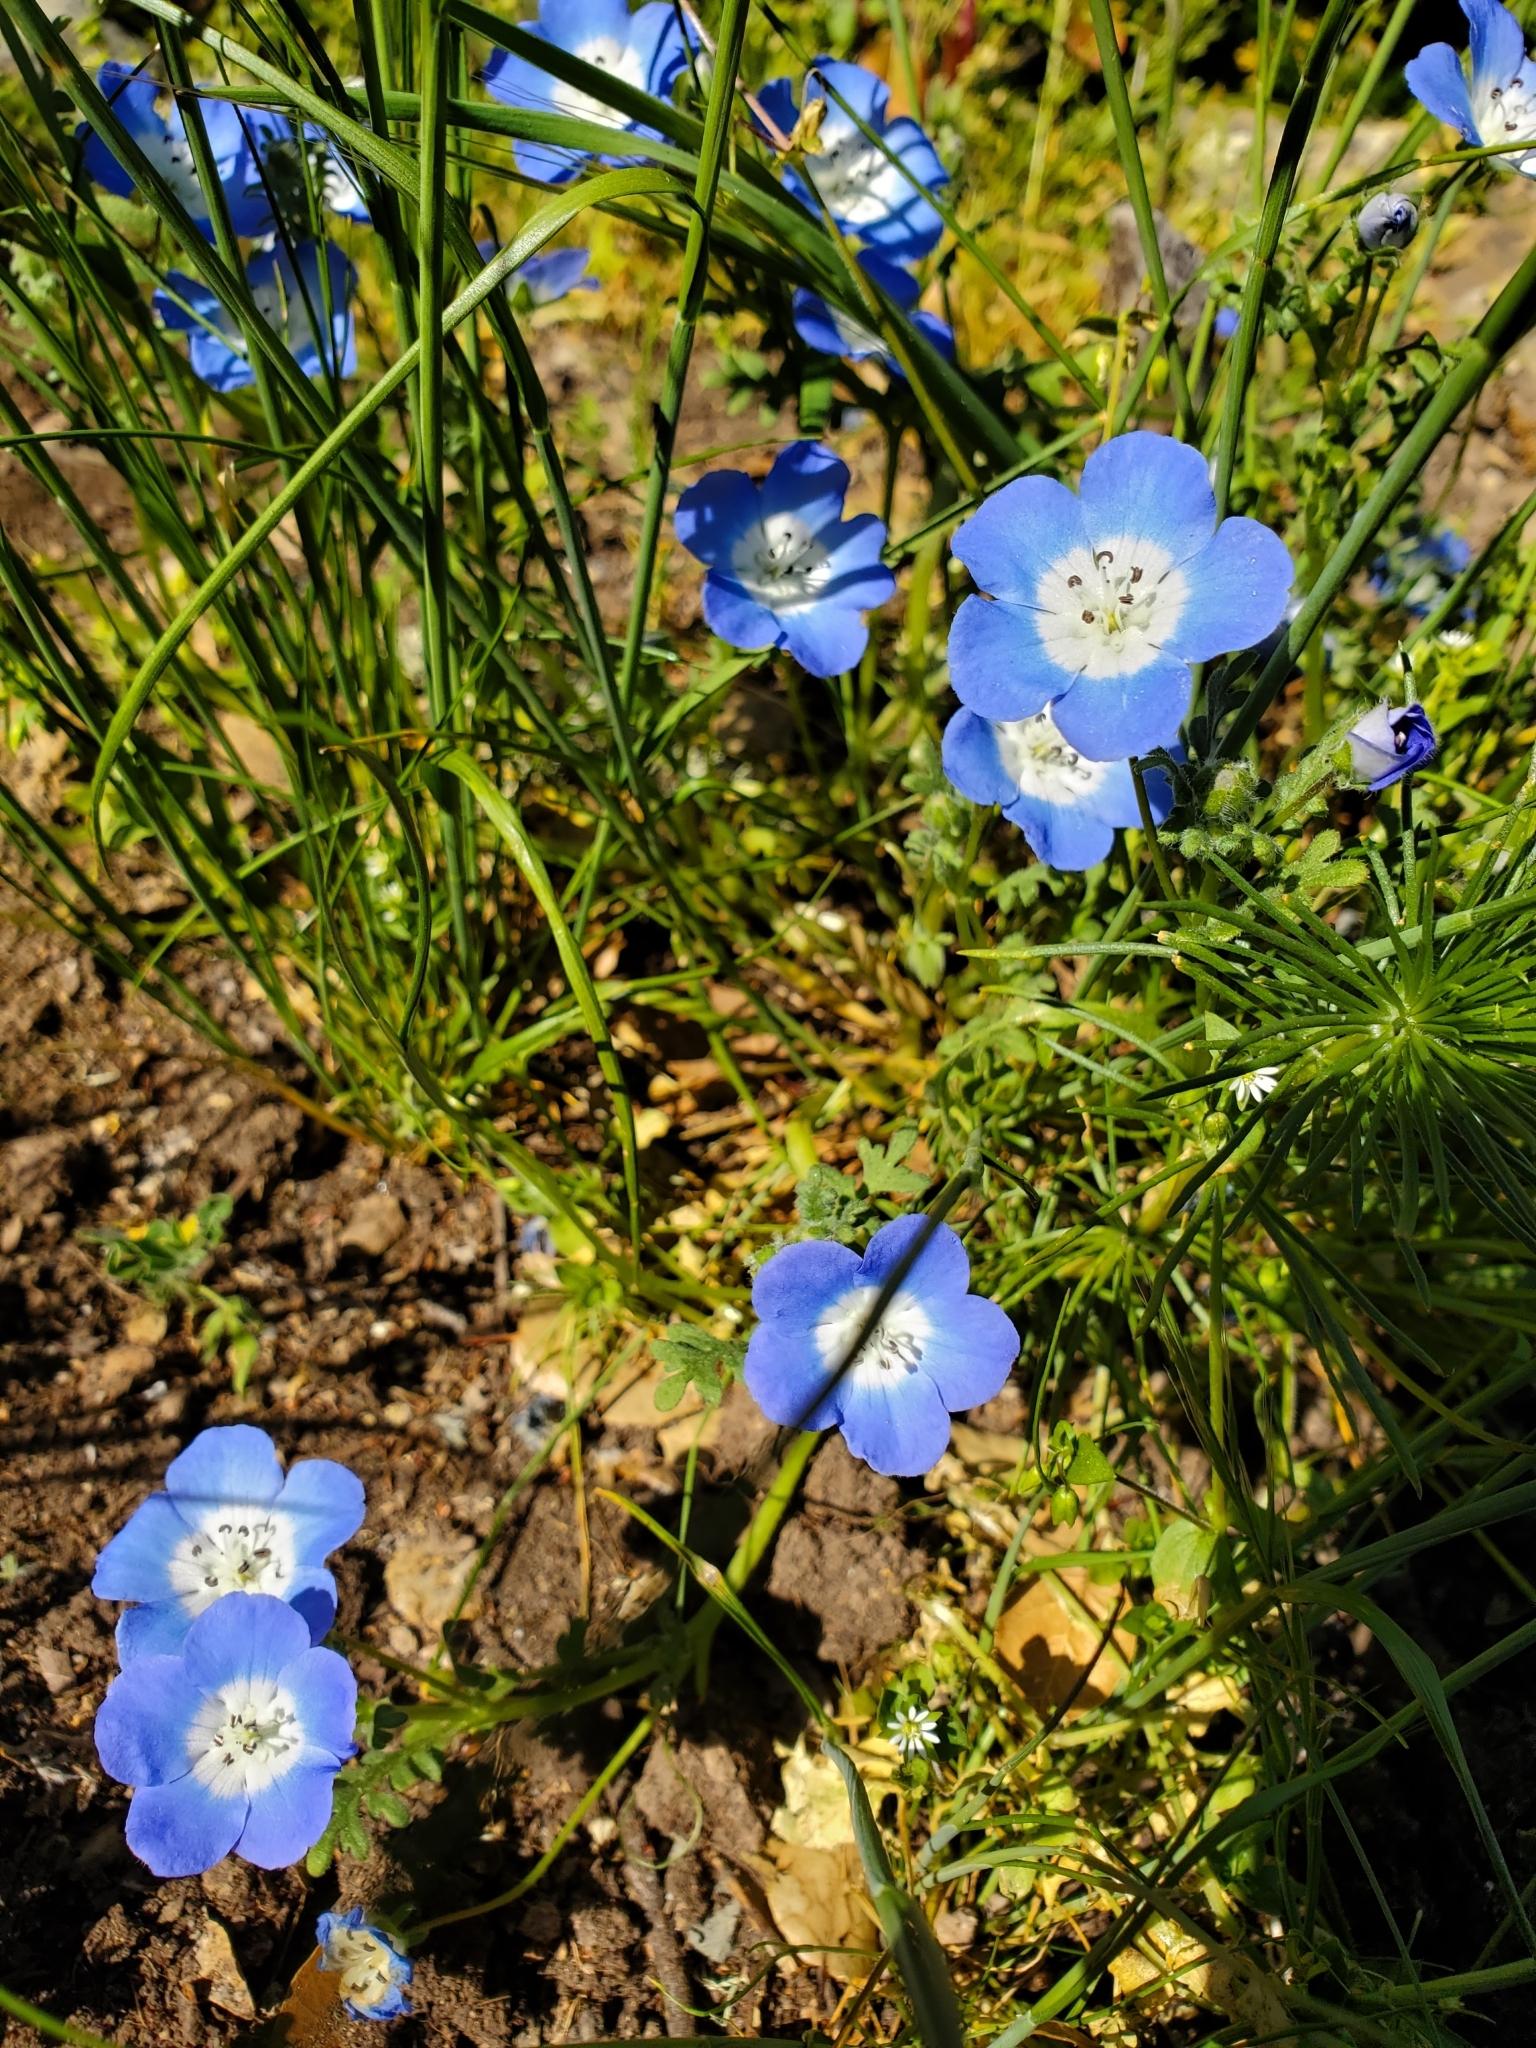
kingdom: Plantae
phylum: Tracheophyta
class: Magnoliopsida
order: Boraginales
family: Hydrophyllaceae
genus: Nemophila
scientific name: Nemophila menziesii
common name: Baby's-blue-eyes
